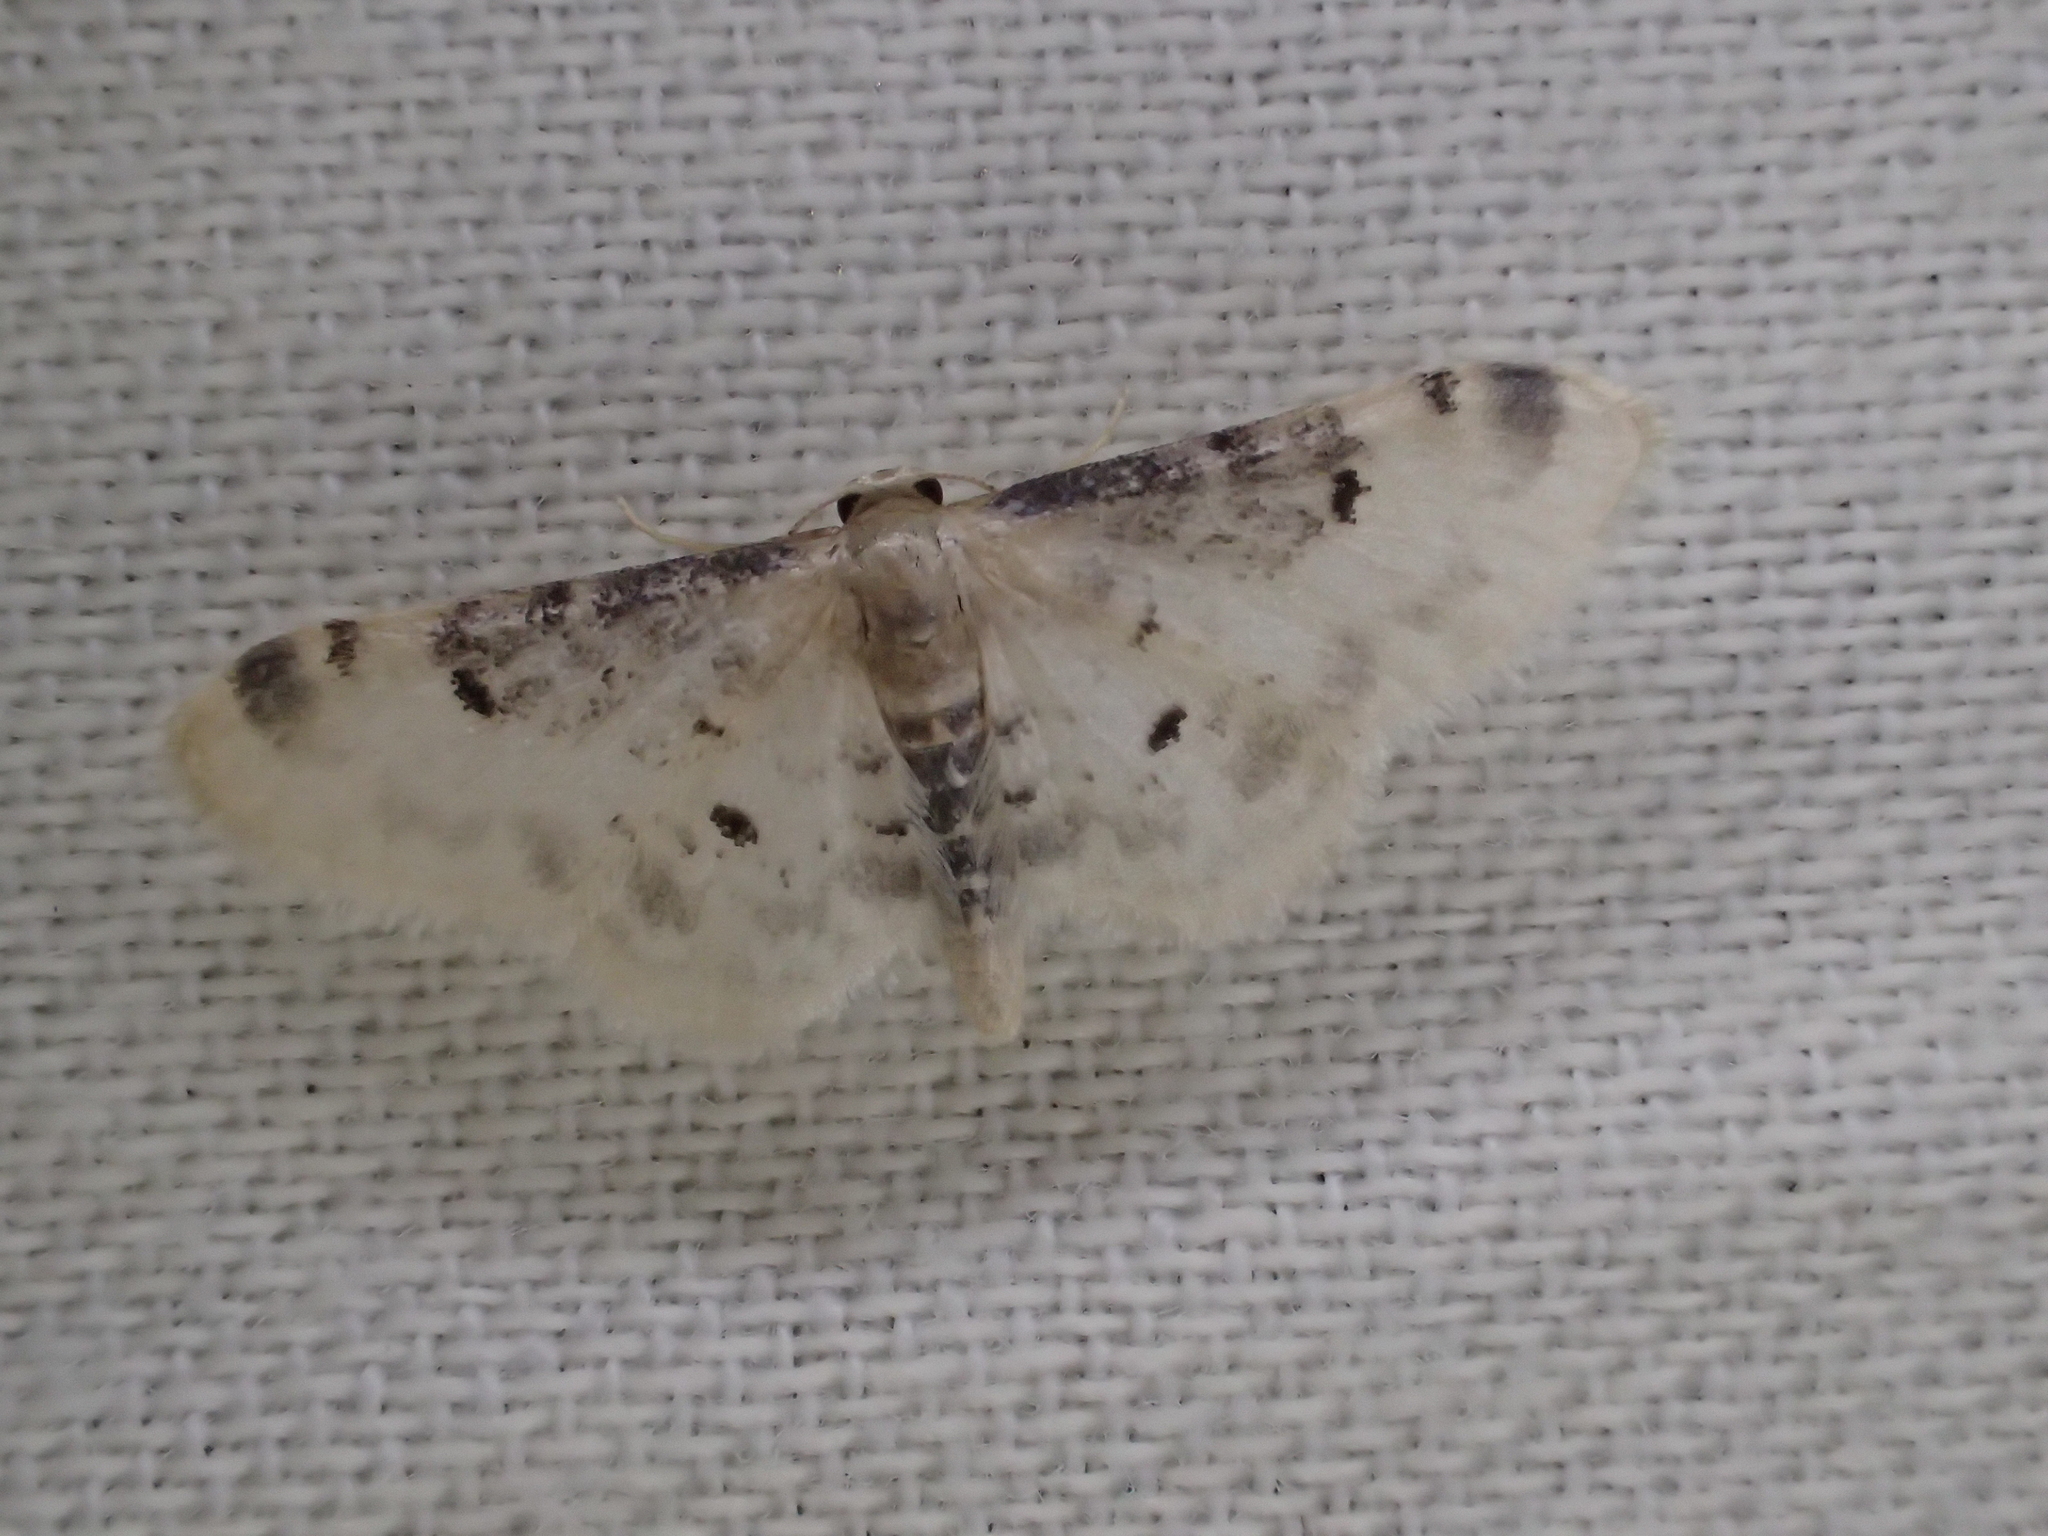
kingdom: Animalia
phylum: Arthropoda
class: Insecta
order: Lepidoptera
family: Geometridae
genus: Idaea
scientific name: Idaea filicata
